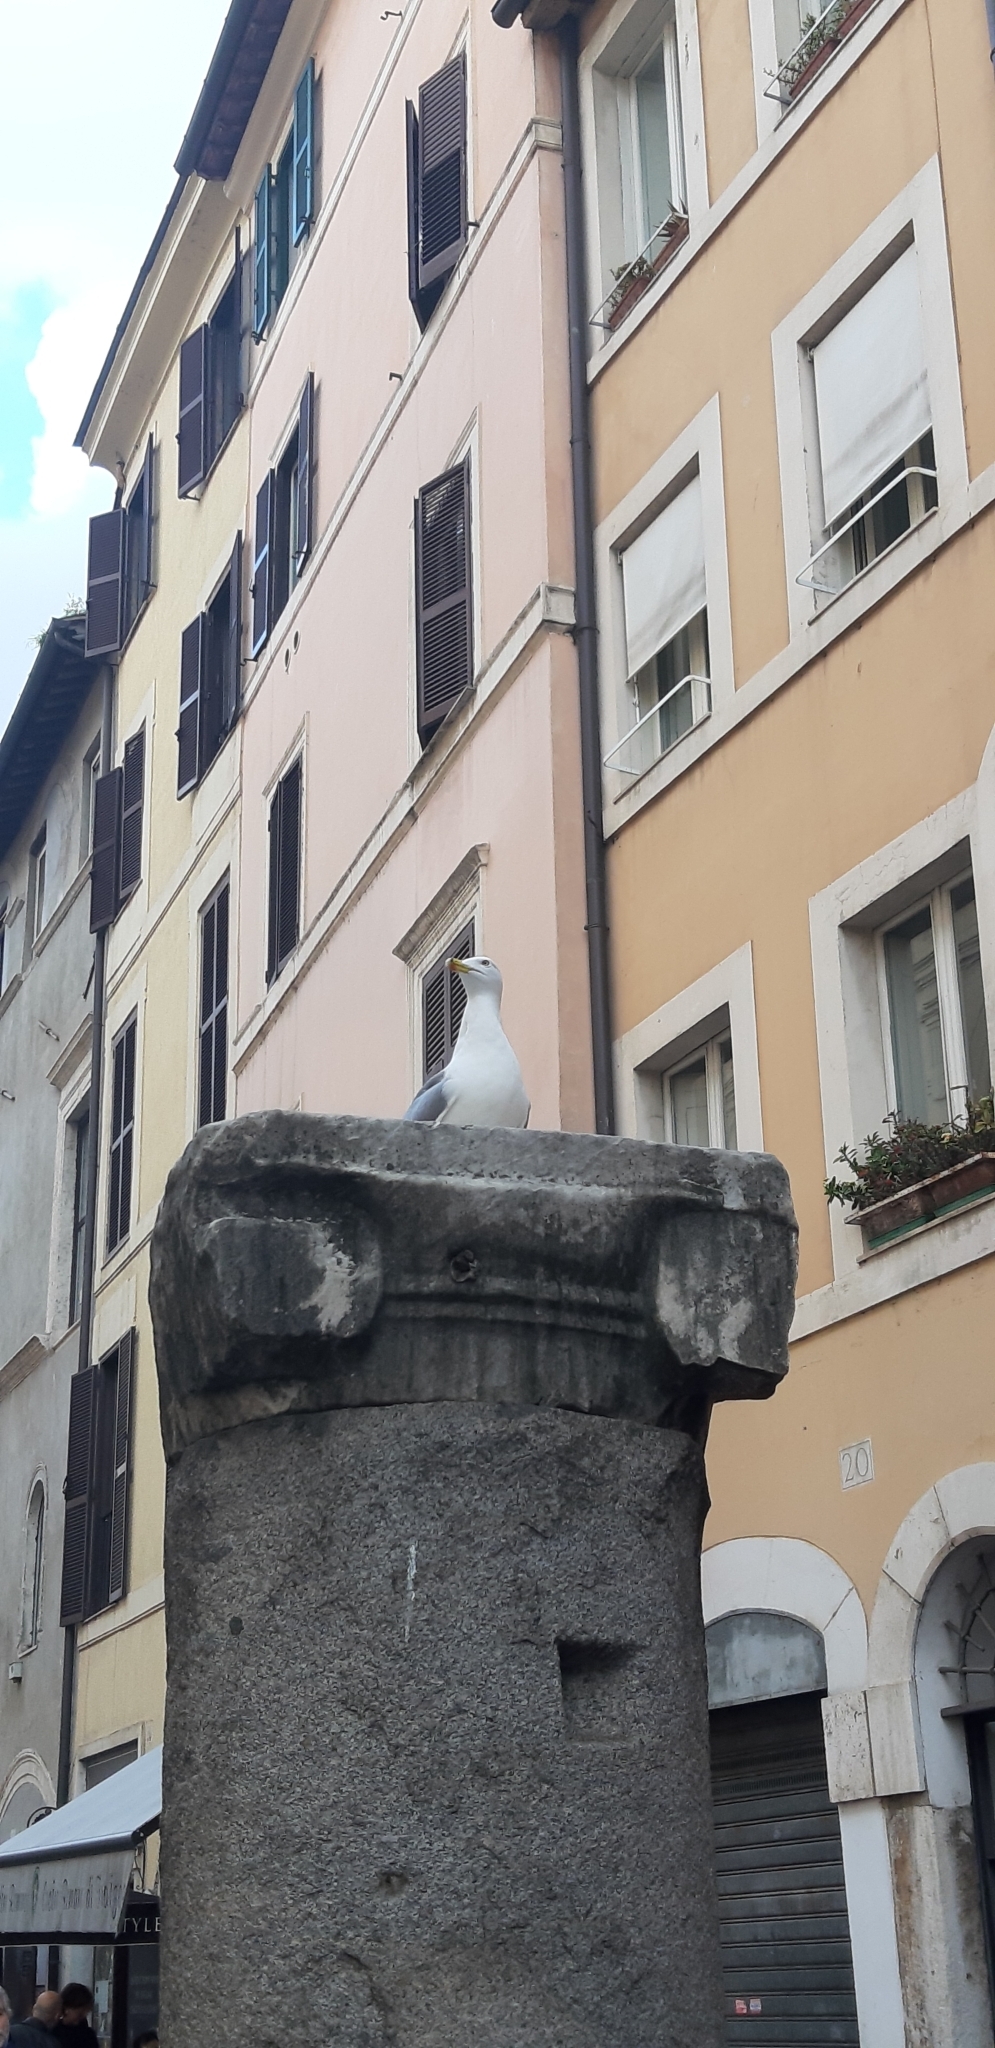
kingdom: Animalia
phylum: Chordata
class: Aves
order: Charadriiformes
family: Laridae
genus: Larus
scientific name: Larus michahellis
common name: Yellow-legged gull
